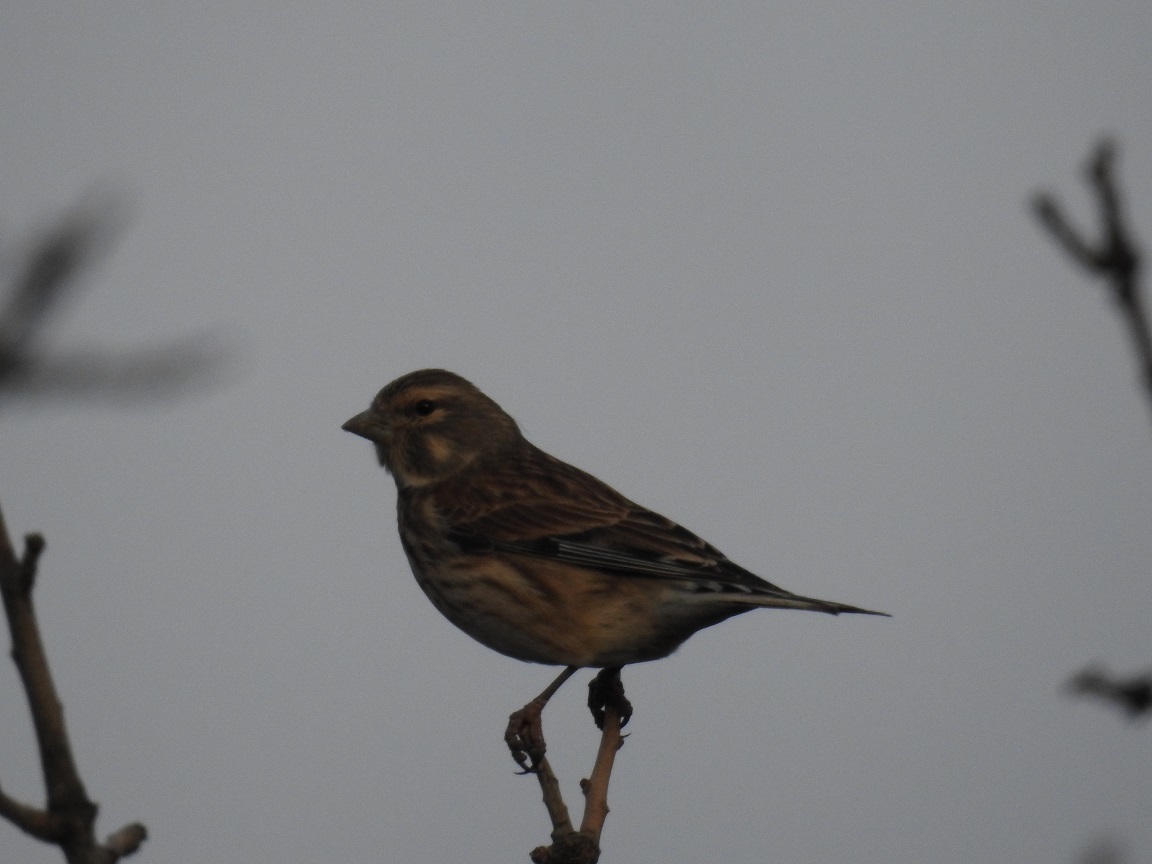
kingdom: Animalia
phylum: Chordata
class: Aves
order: Passeriformes
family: Fringillidae
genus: Linaria
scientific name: Linaria cannabina
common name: Common linnet
